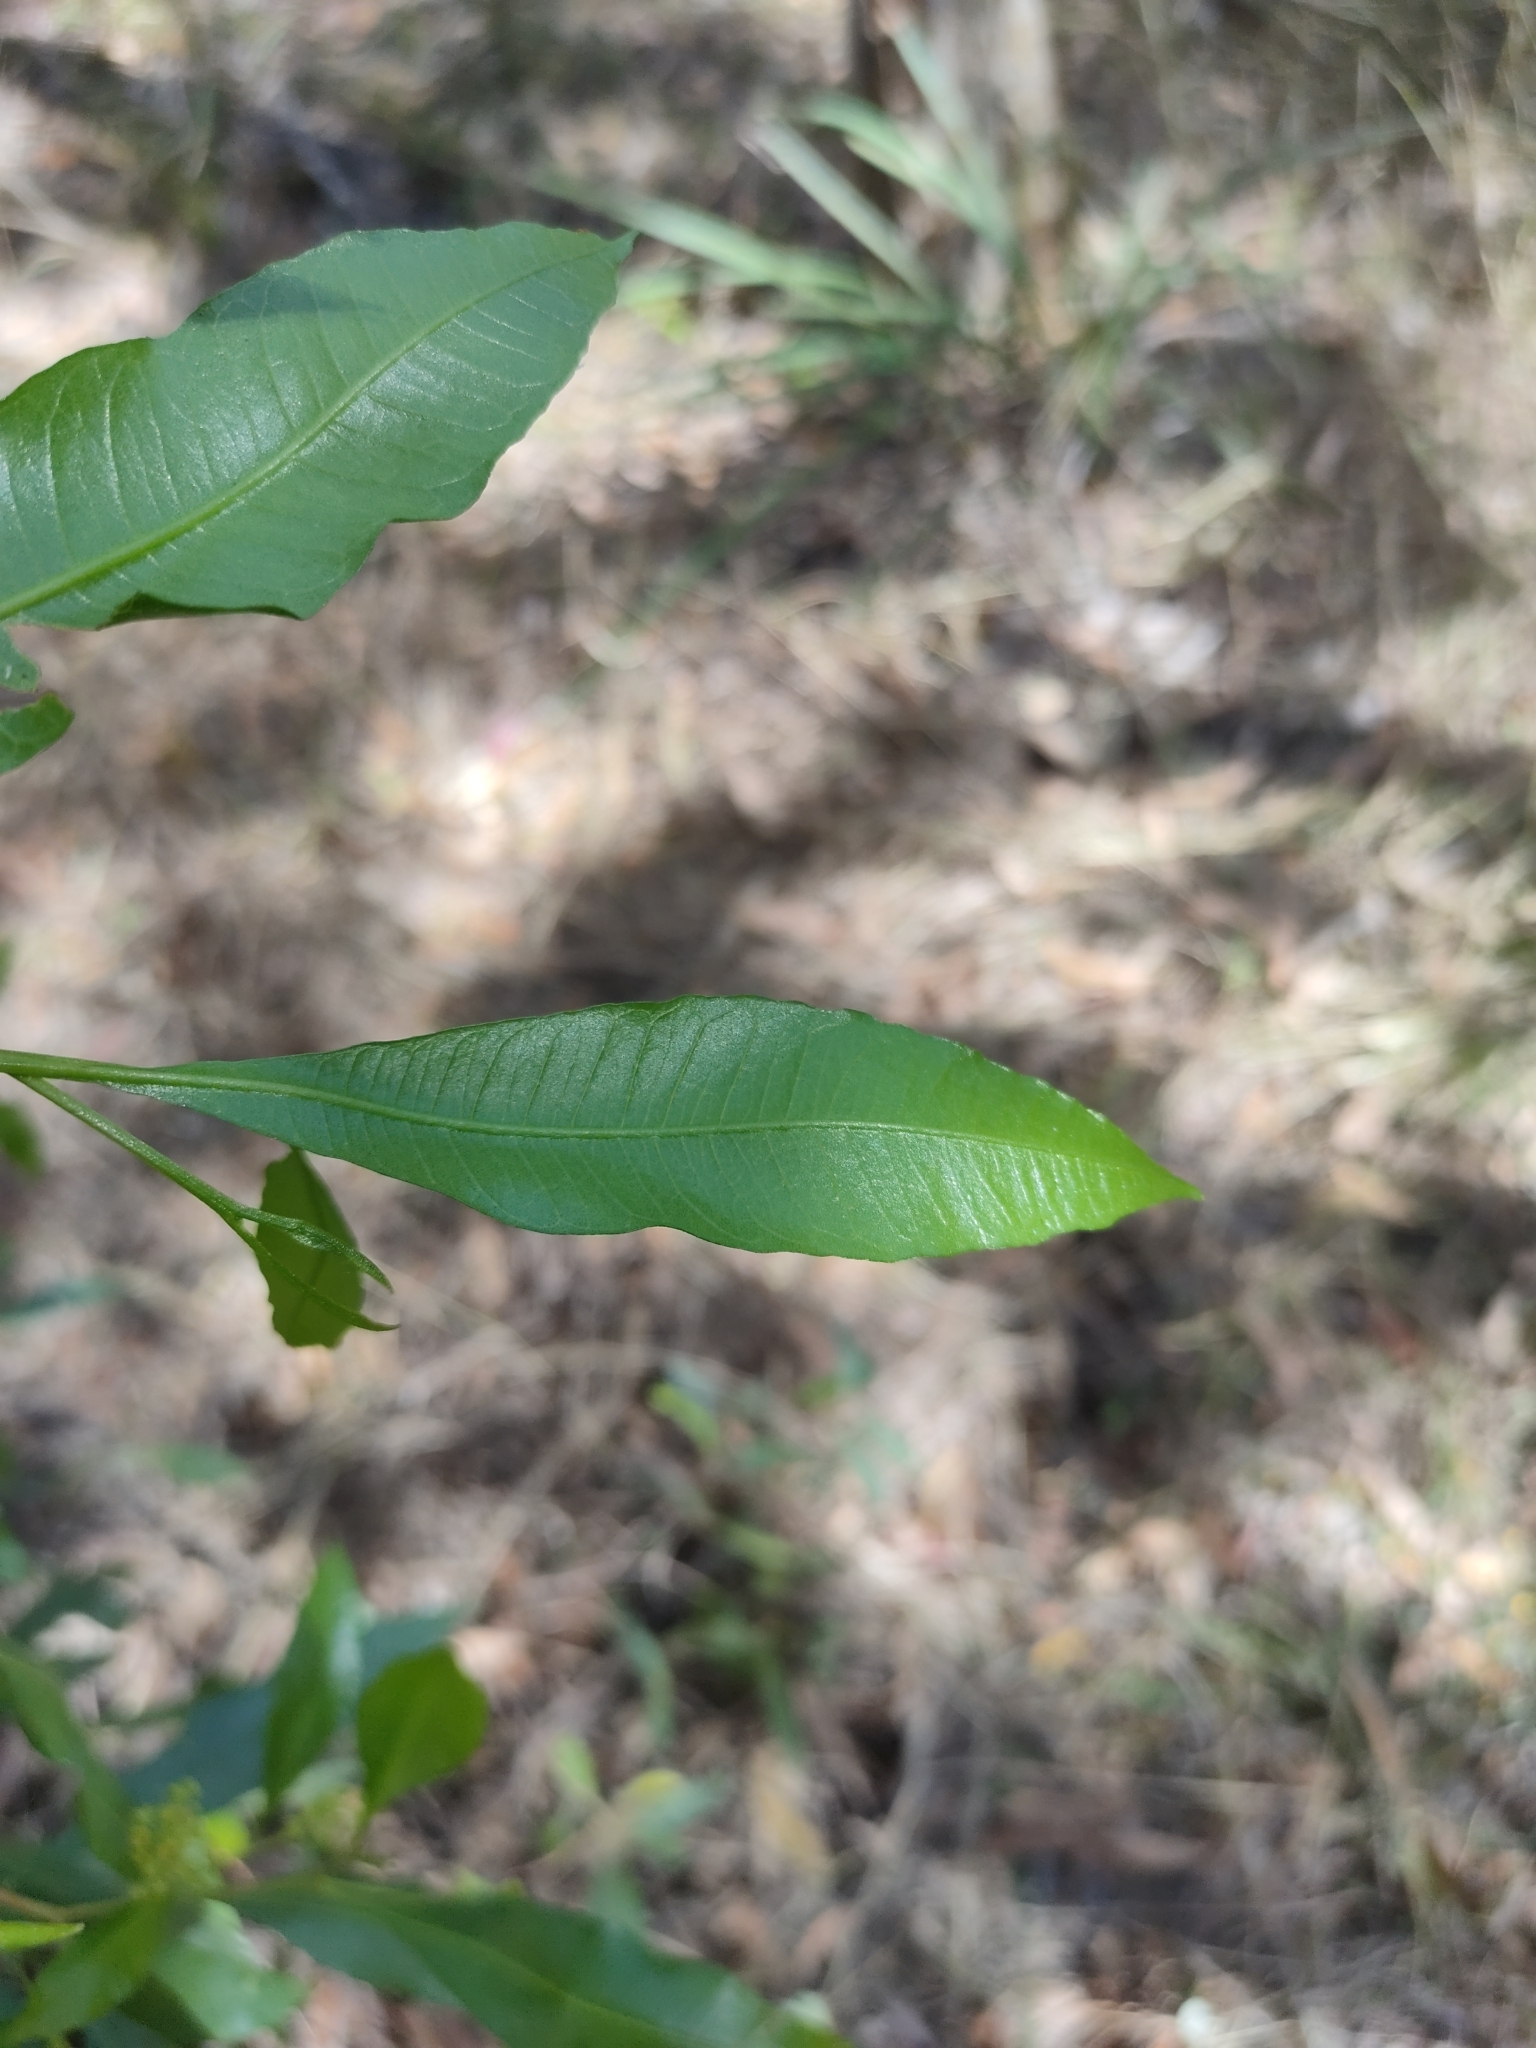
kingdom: Plantae
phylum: Tracheophyta
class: Magnoliopsida
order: Sapindales
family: Sapindaceae
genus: Dodonaea
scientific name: Dodonaea viscosa
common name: Hopbush
